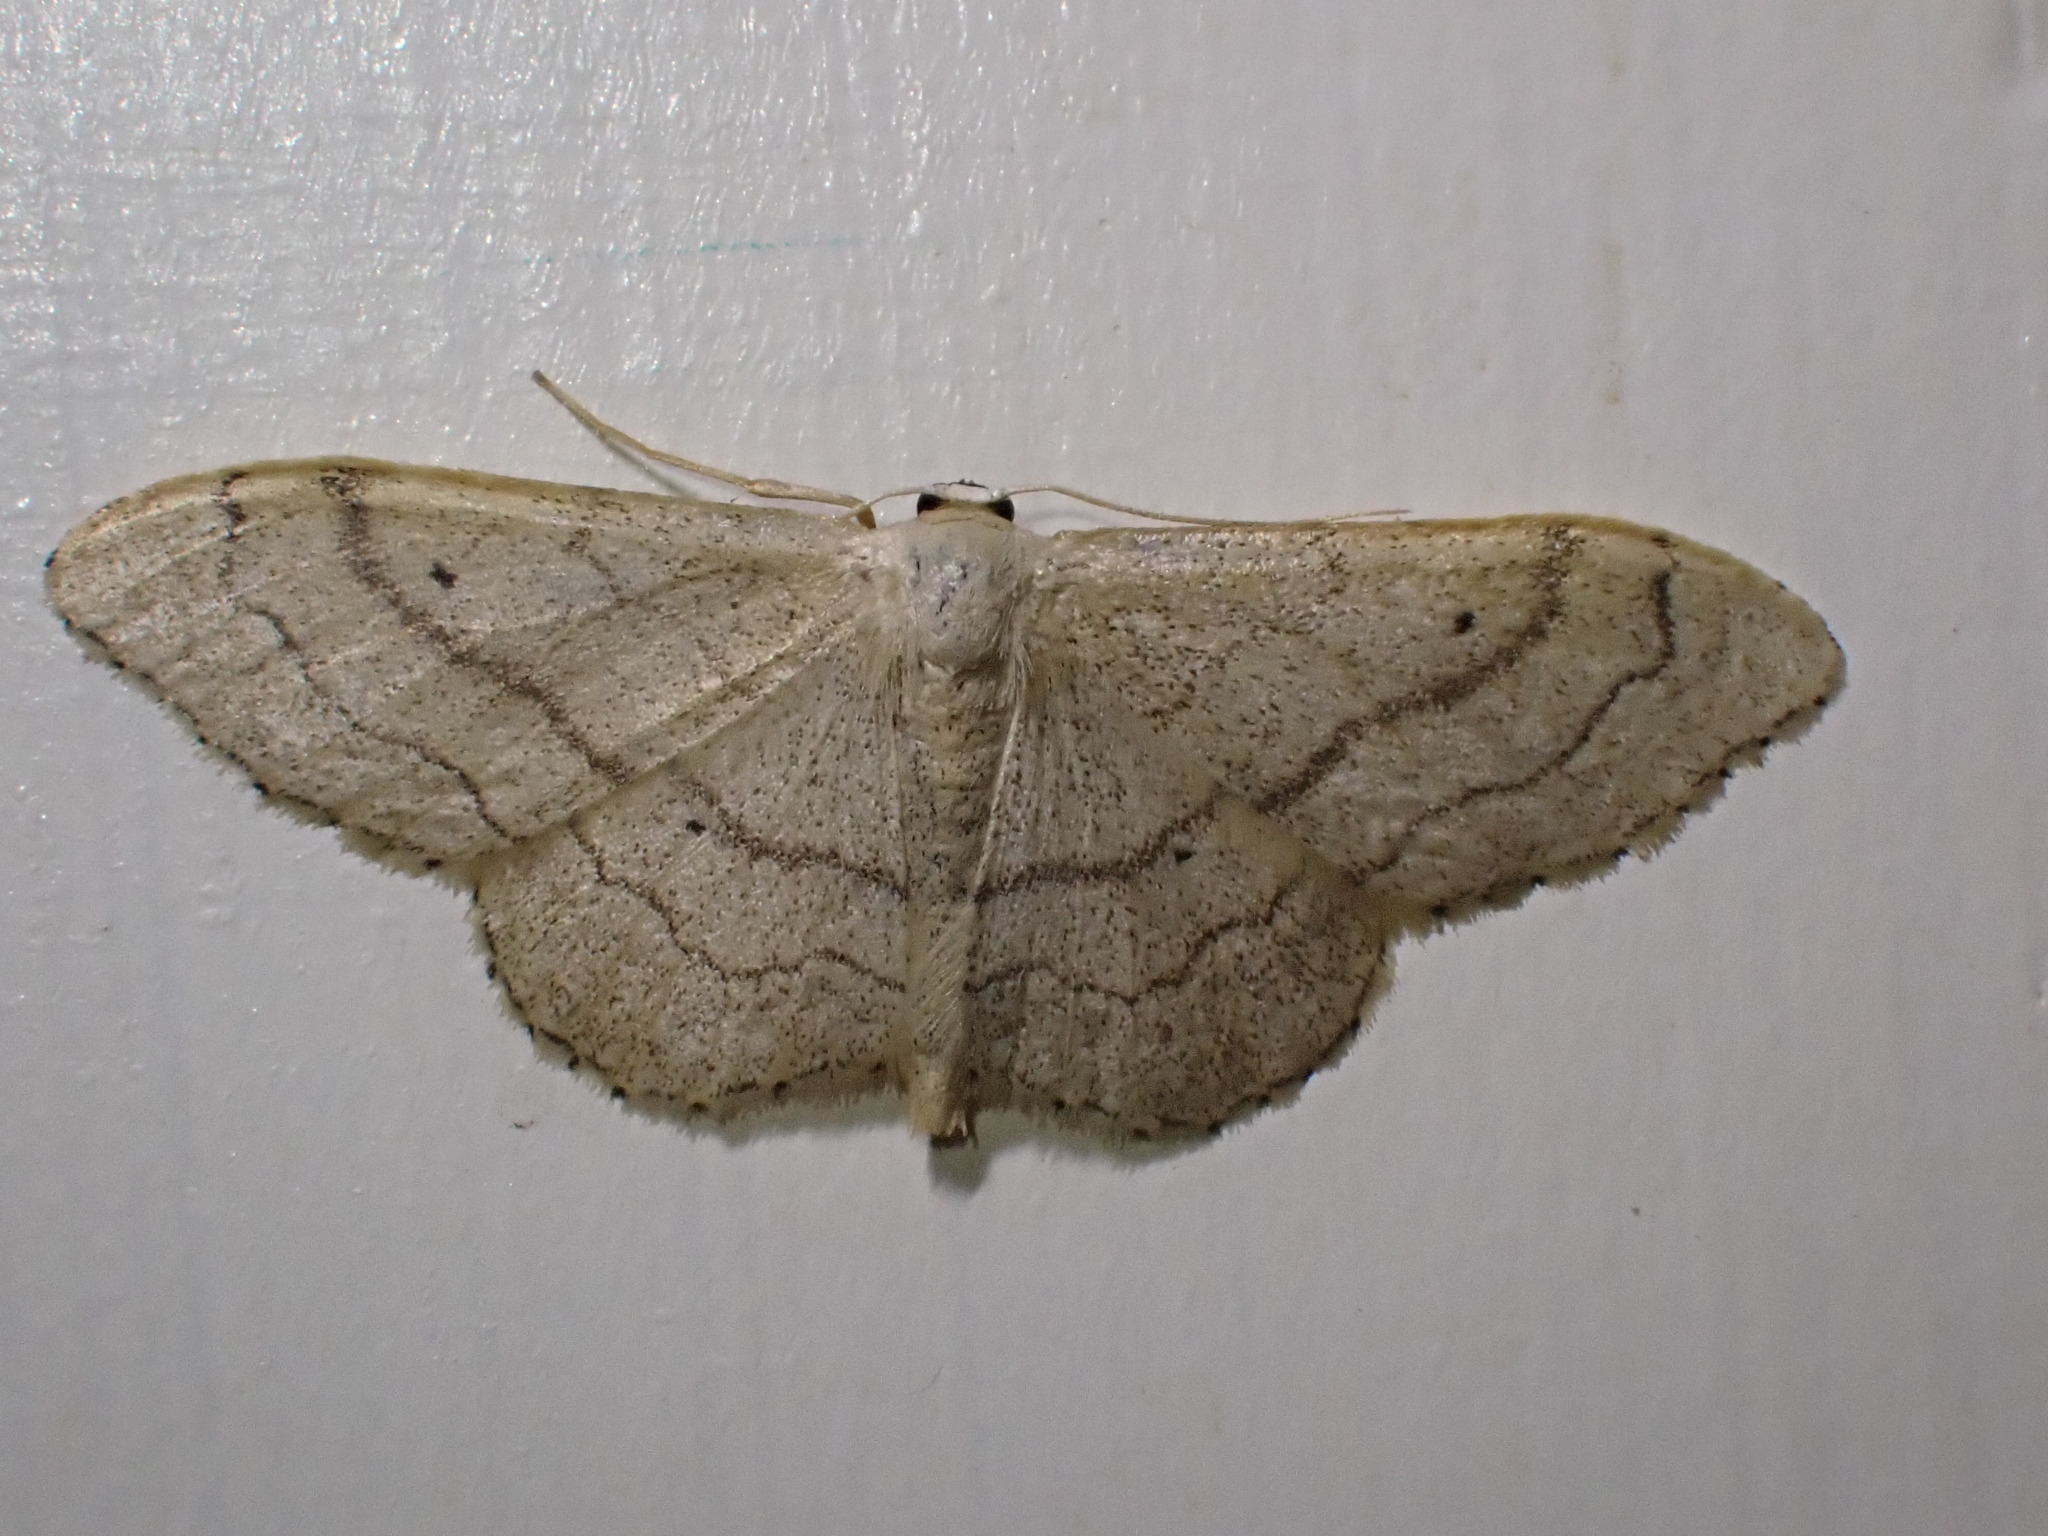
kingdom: Animalia
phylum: Arthropoda
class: Insecta
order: Lepidoptera
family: Geometridae
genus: Idaea
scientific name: Idaea aversata
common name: Riband wave
